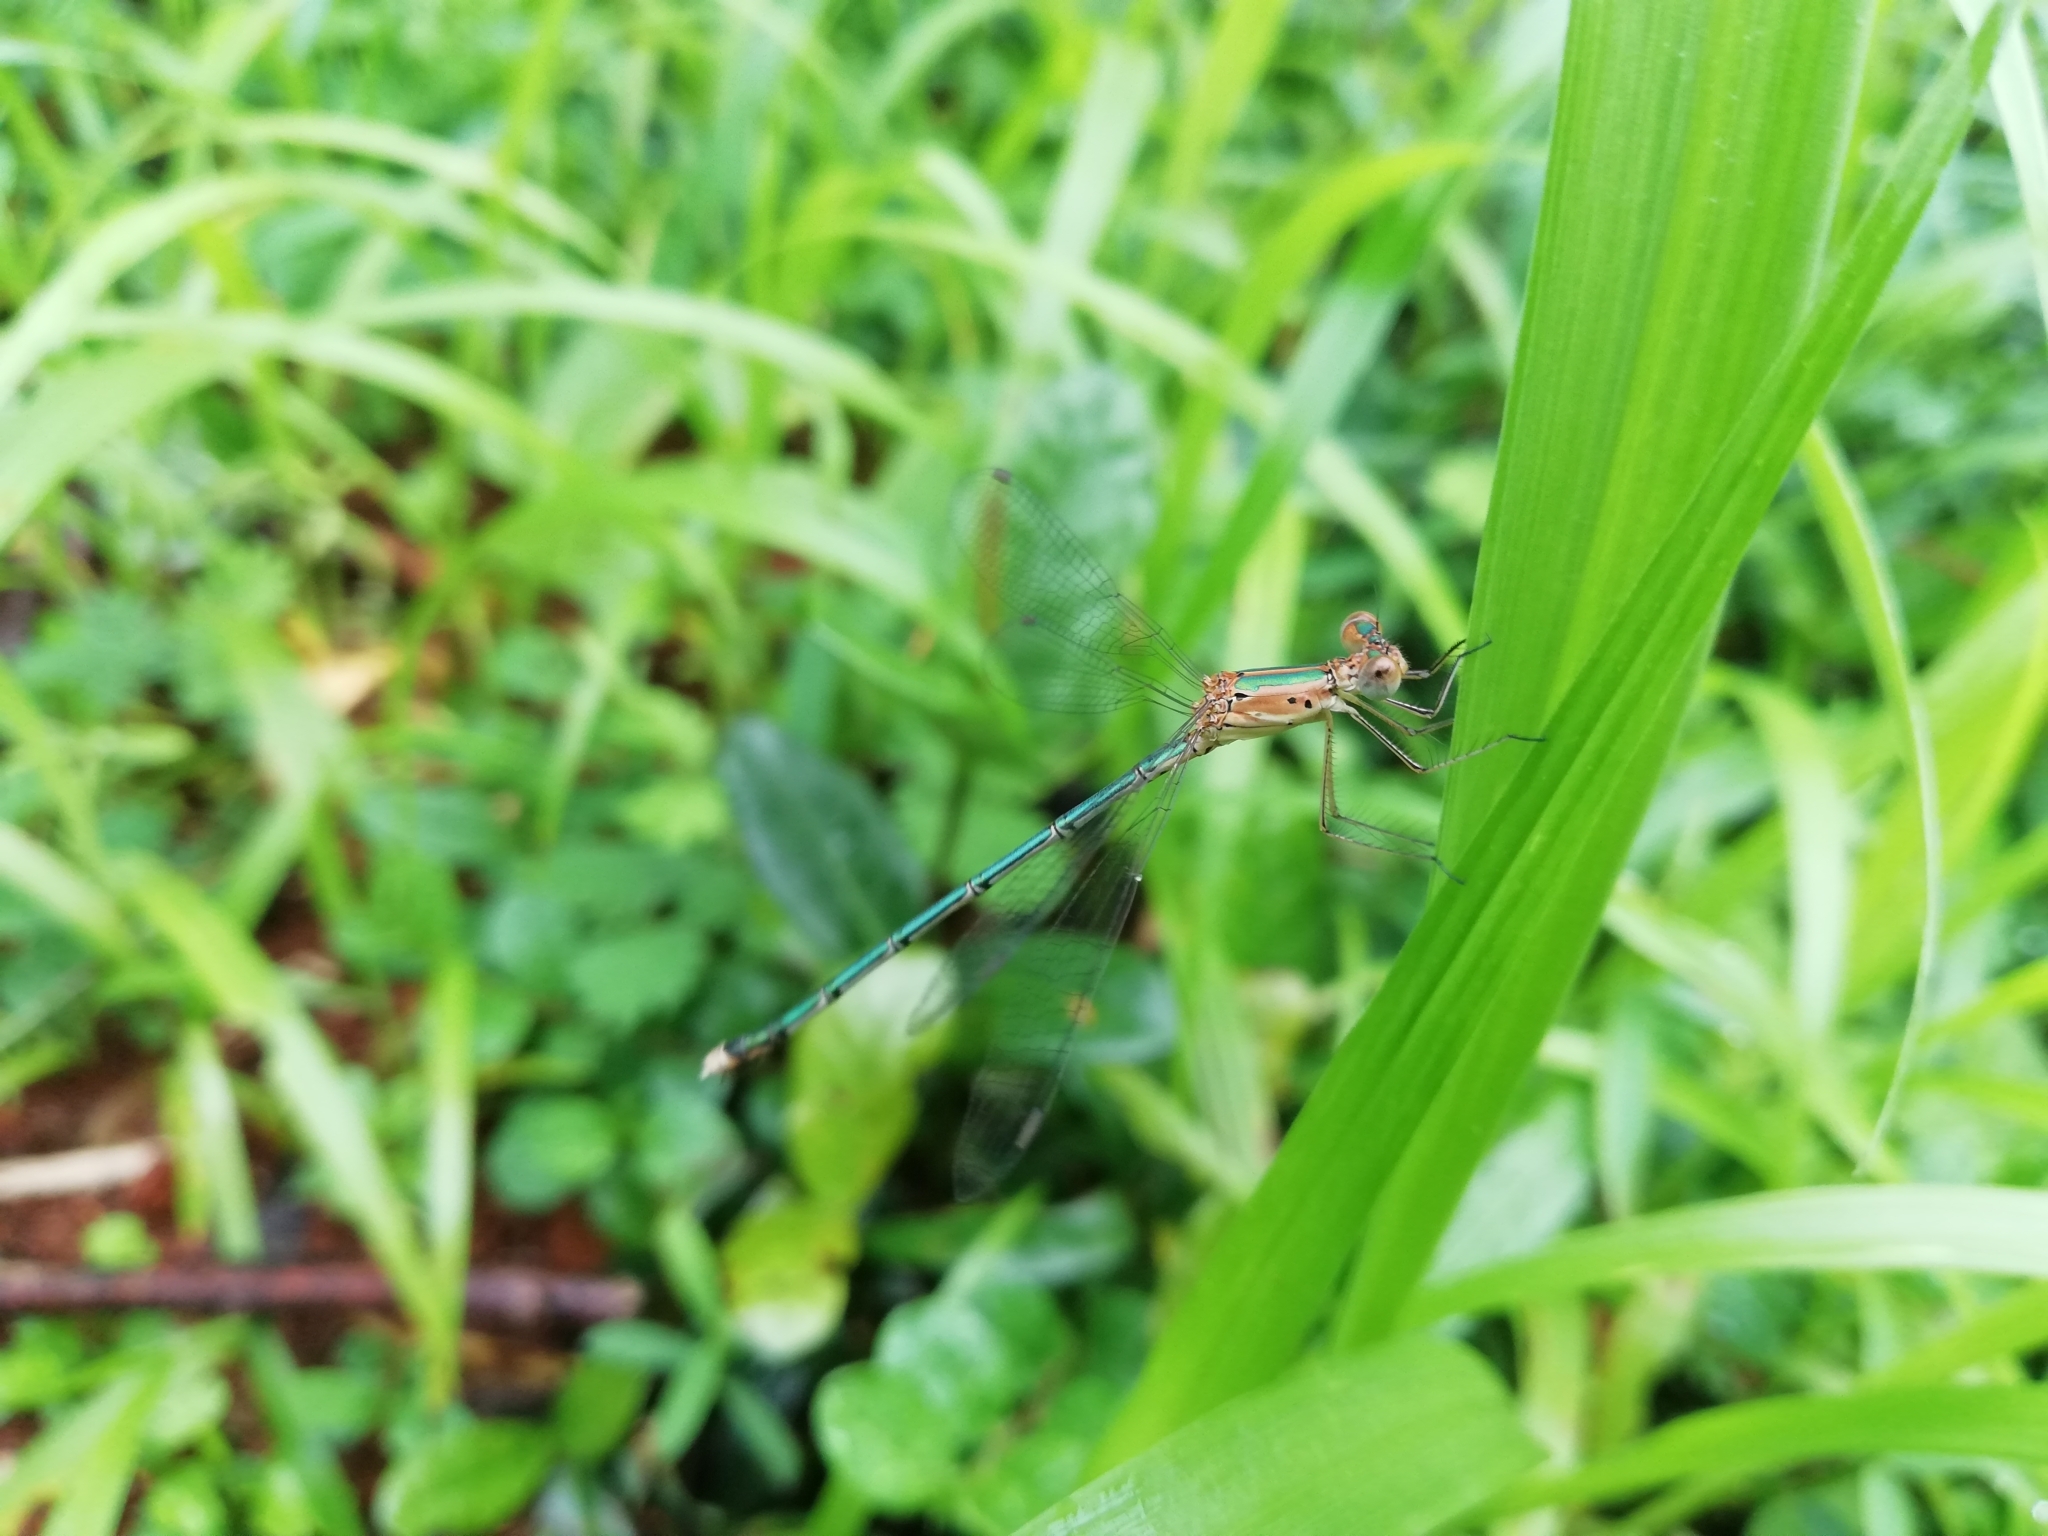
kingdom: Animalia
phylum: Arthropoda
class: Insecta
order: Odonata
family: Lestidae
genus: Lestes
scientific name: Lestes elatus
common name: Emerald spreadwing
